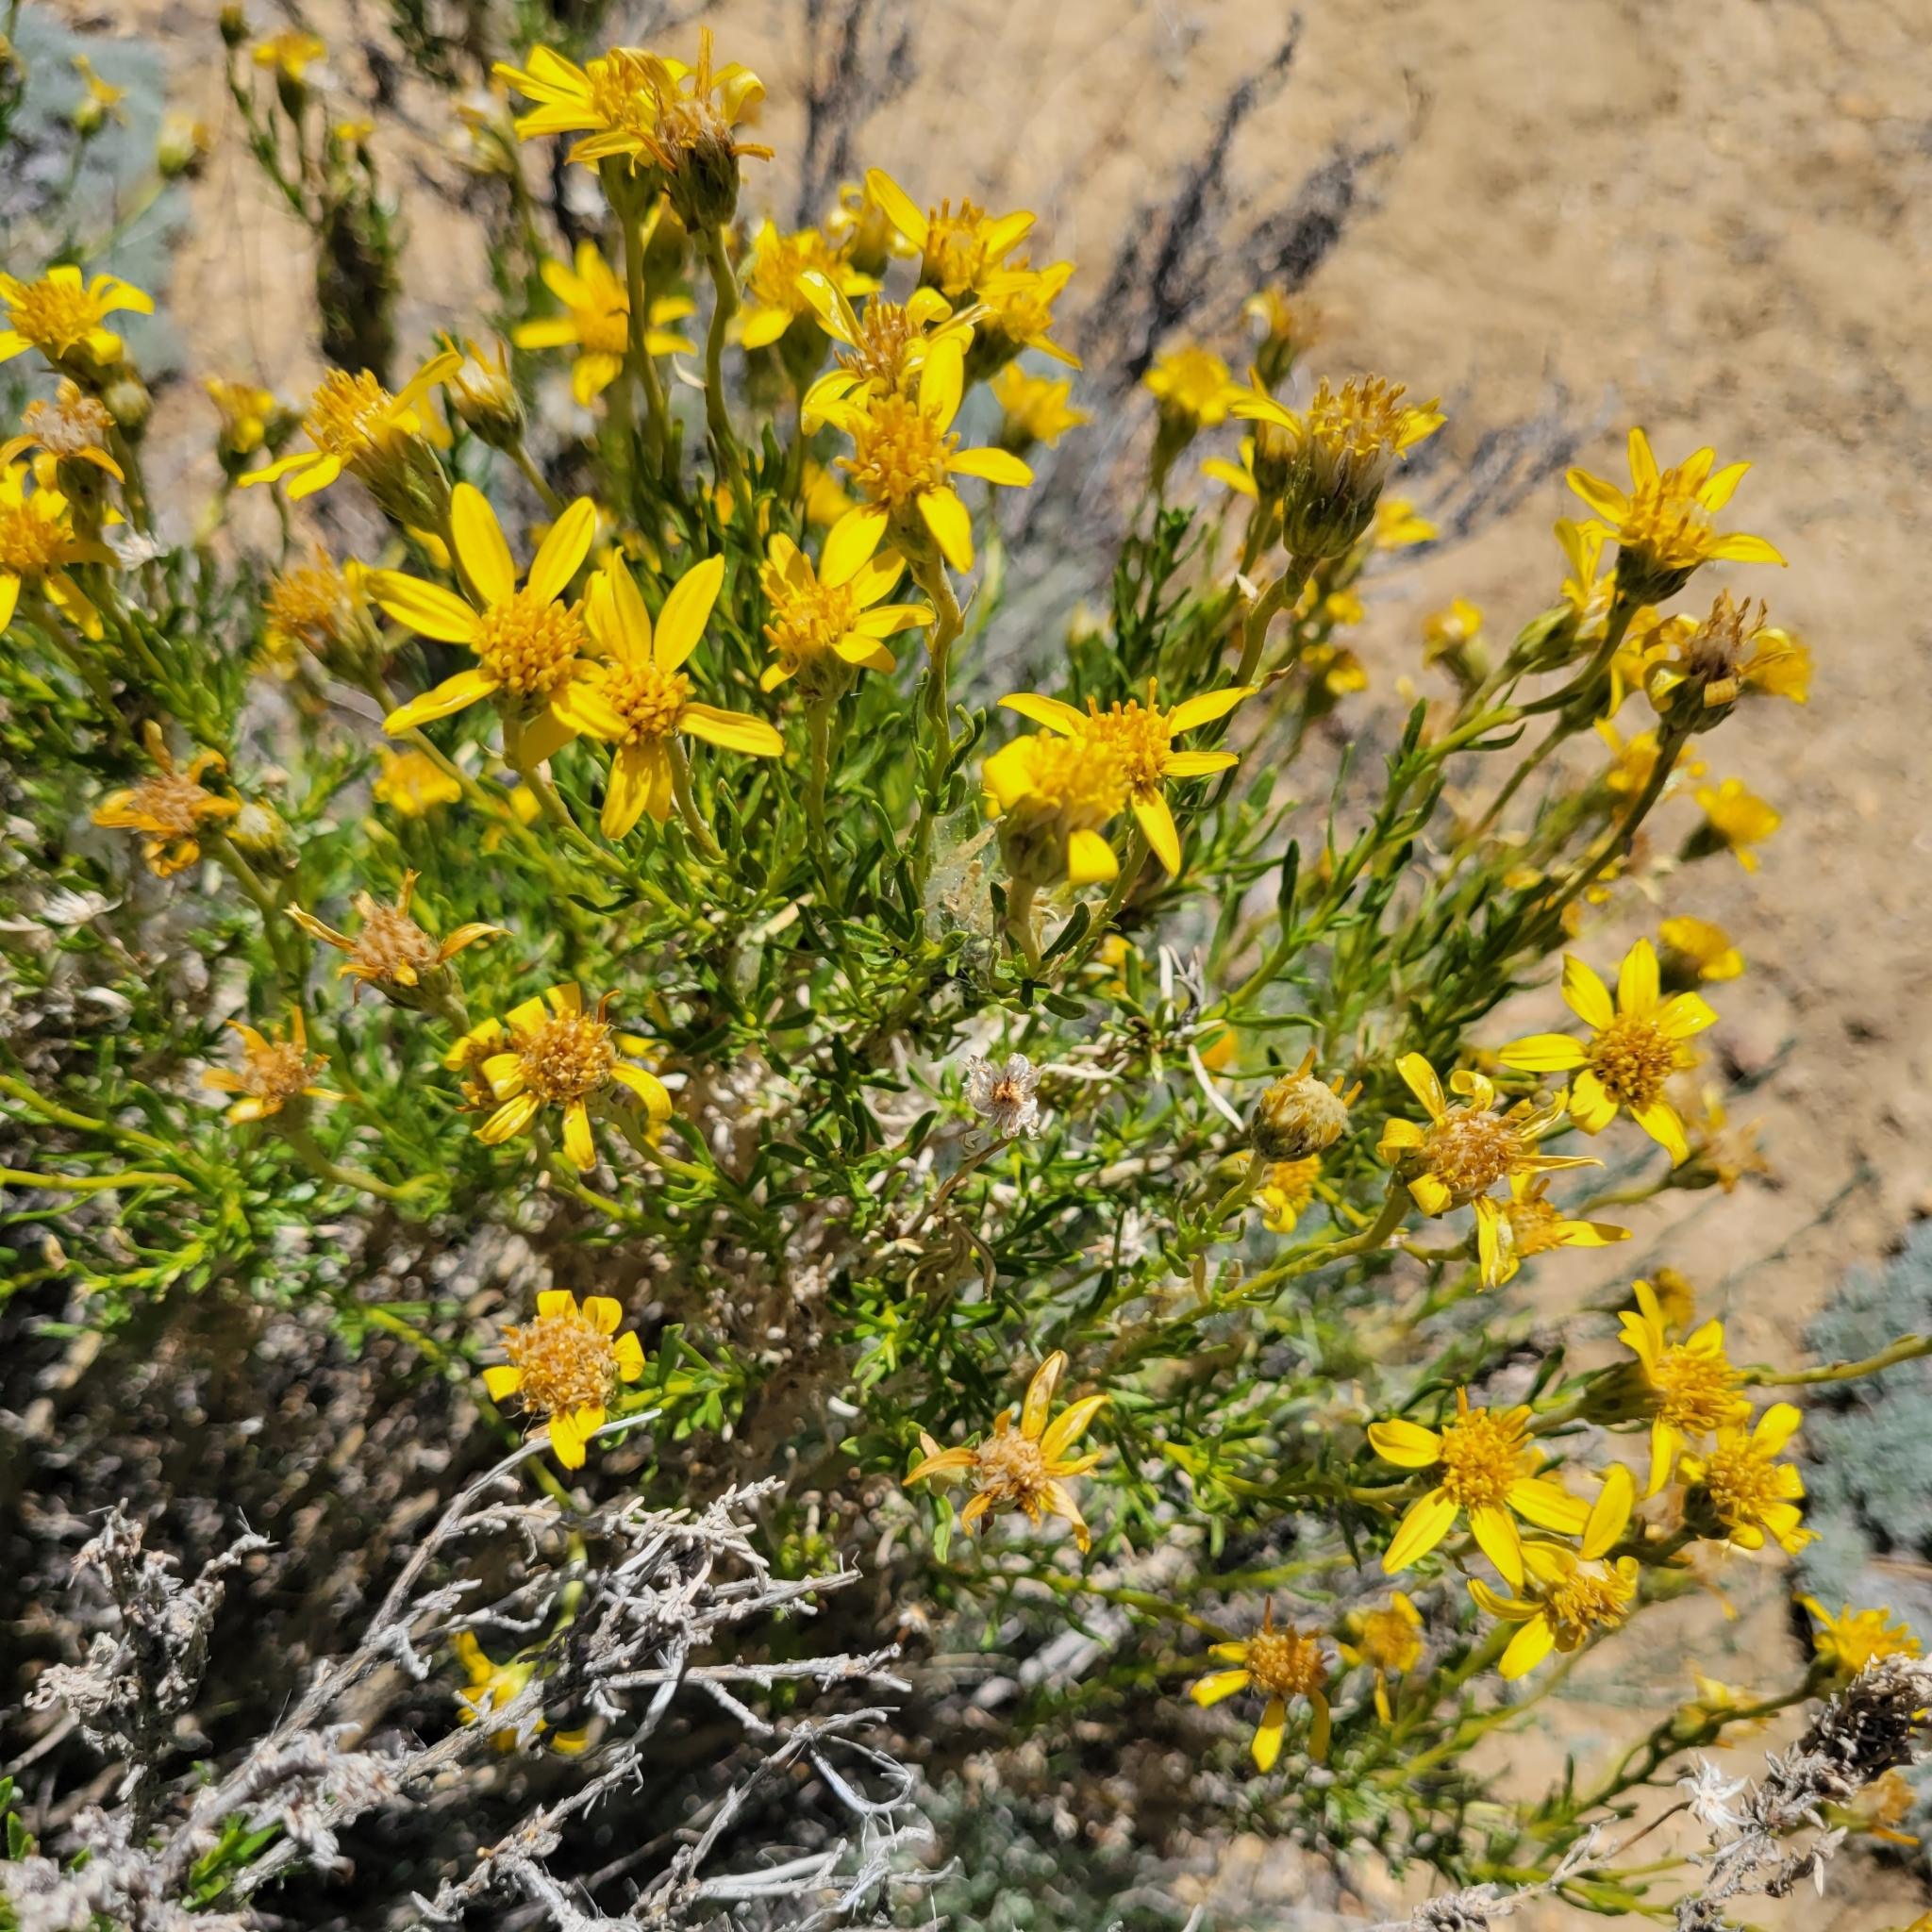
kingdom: Plantae
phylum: Tracheophyta
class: Magnoliopsida
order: Asterales
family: Asteraceae
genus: Ericameria
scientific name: Ericameria linearifolia
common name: Interior goldenbush
